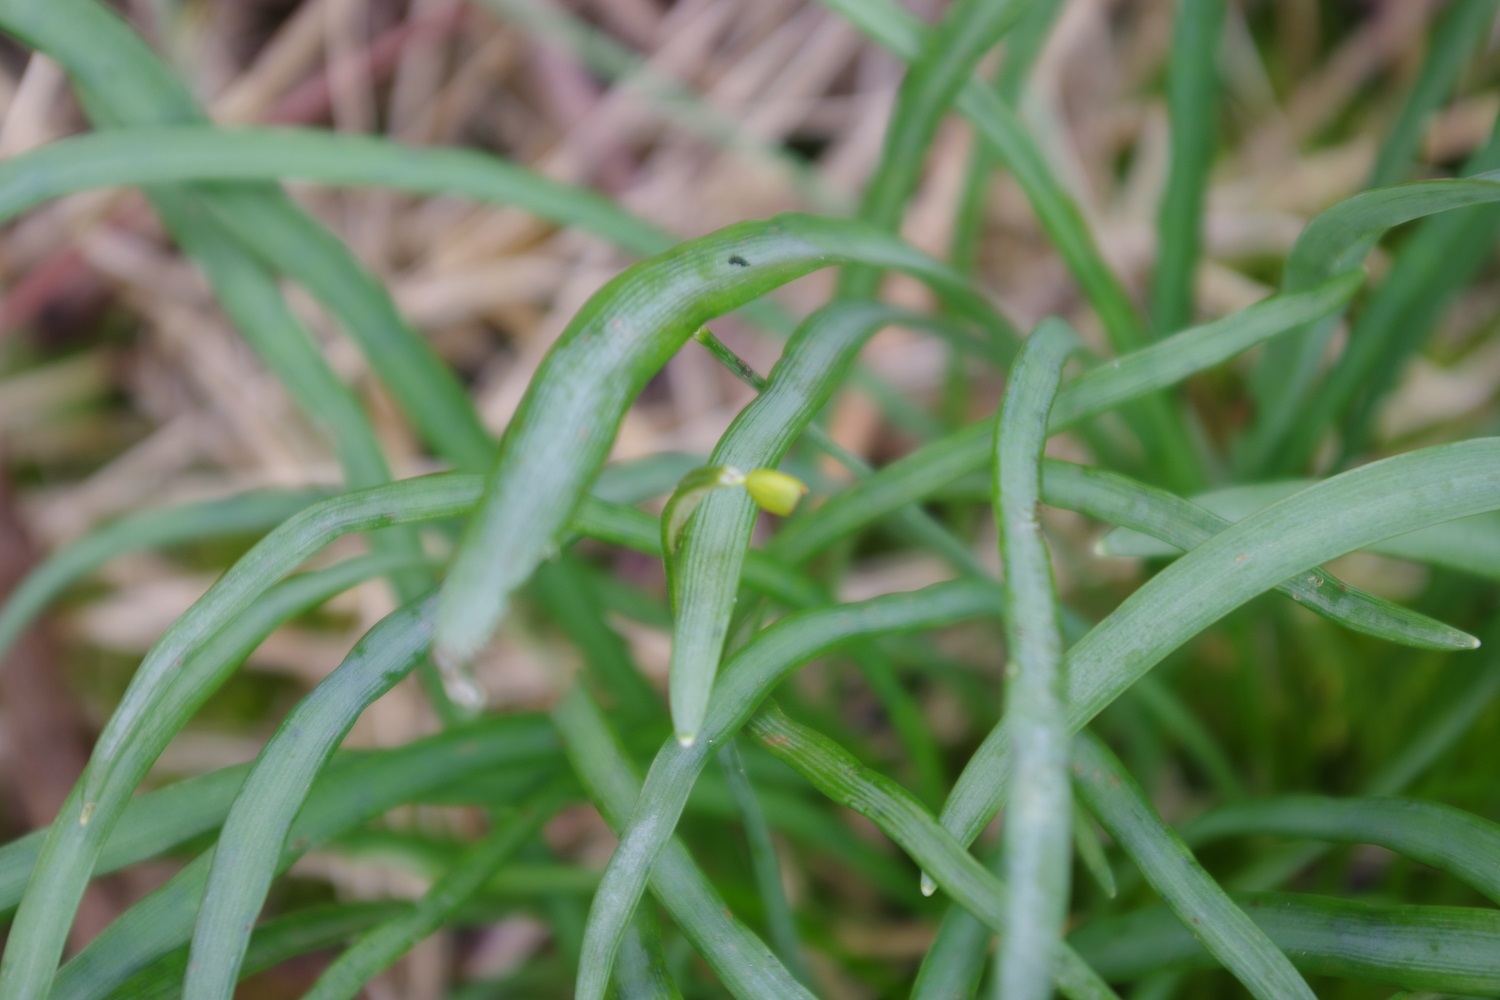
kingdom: Plantae
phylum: Tracheophyta
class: Liliopsida
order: Asparagales
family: Amaryllidaceae
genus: Galanthus
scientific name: Galanthus nivalis
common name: Snowdrop
